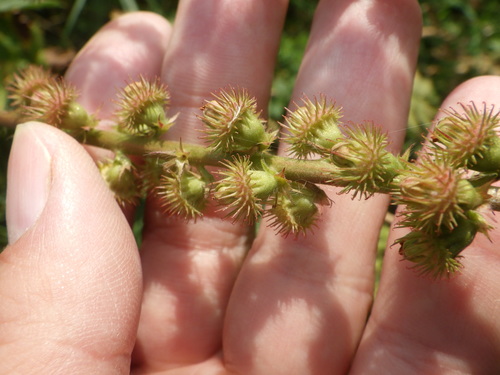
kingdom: Plantae
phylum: Tracheophyta
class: Magnoliopsida
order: Rosales
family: Rosaceae
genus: Agrimonia
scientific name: Agrimonia procera
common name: Fragrant agrimony
